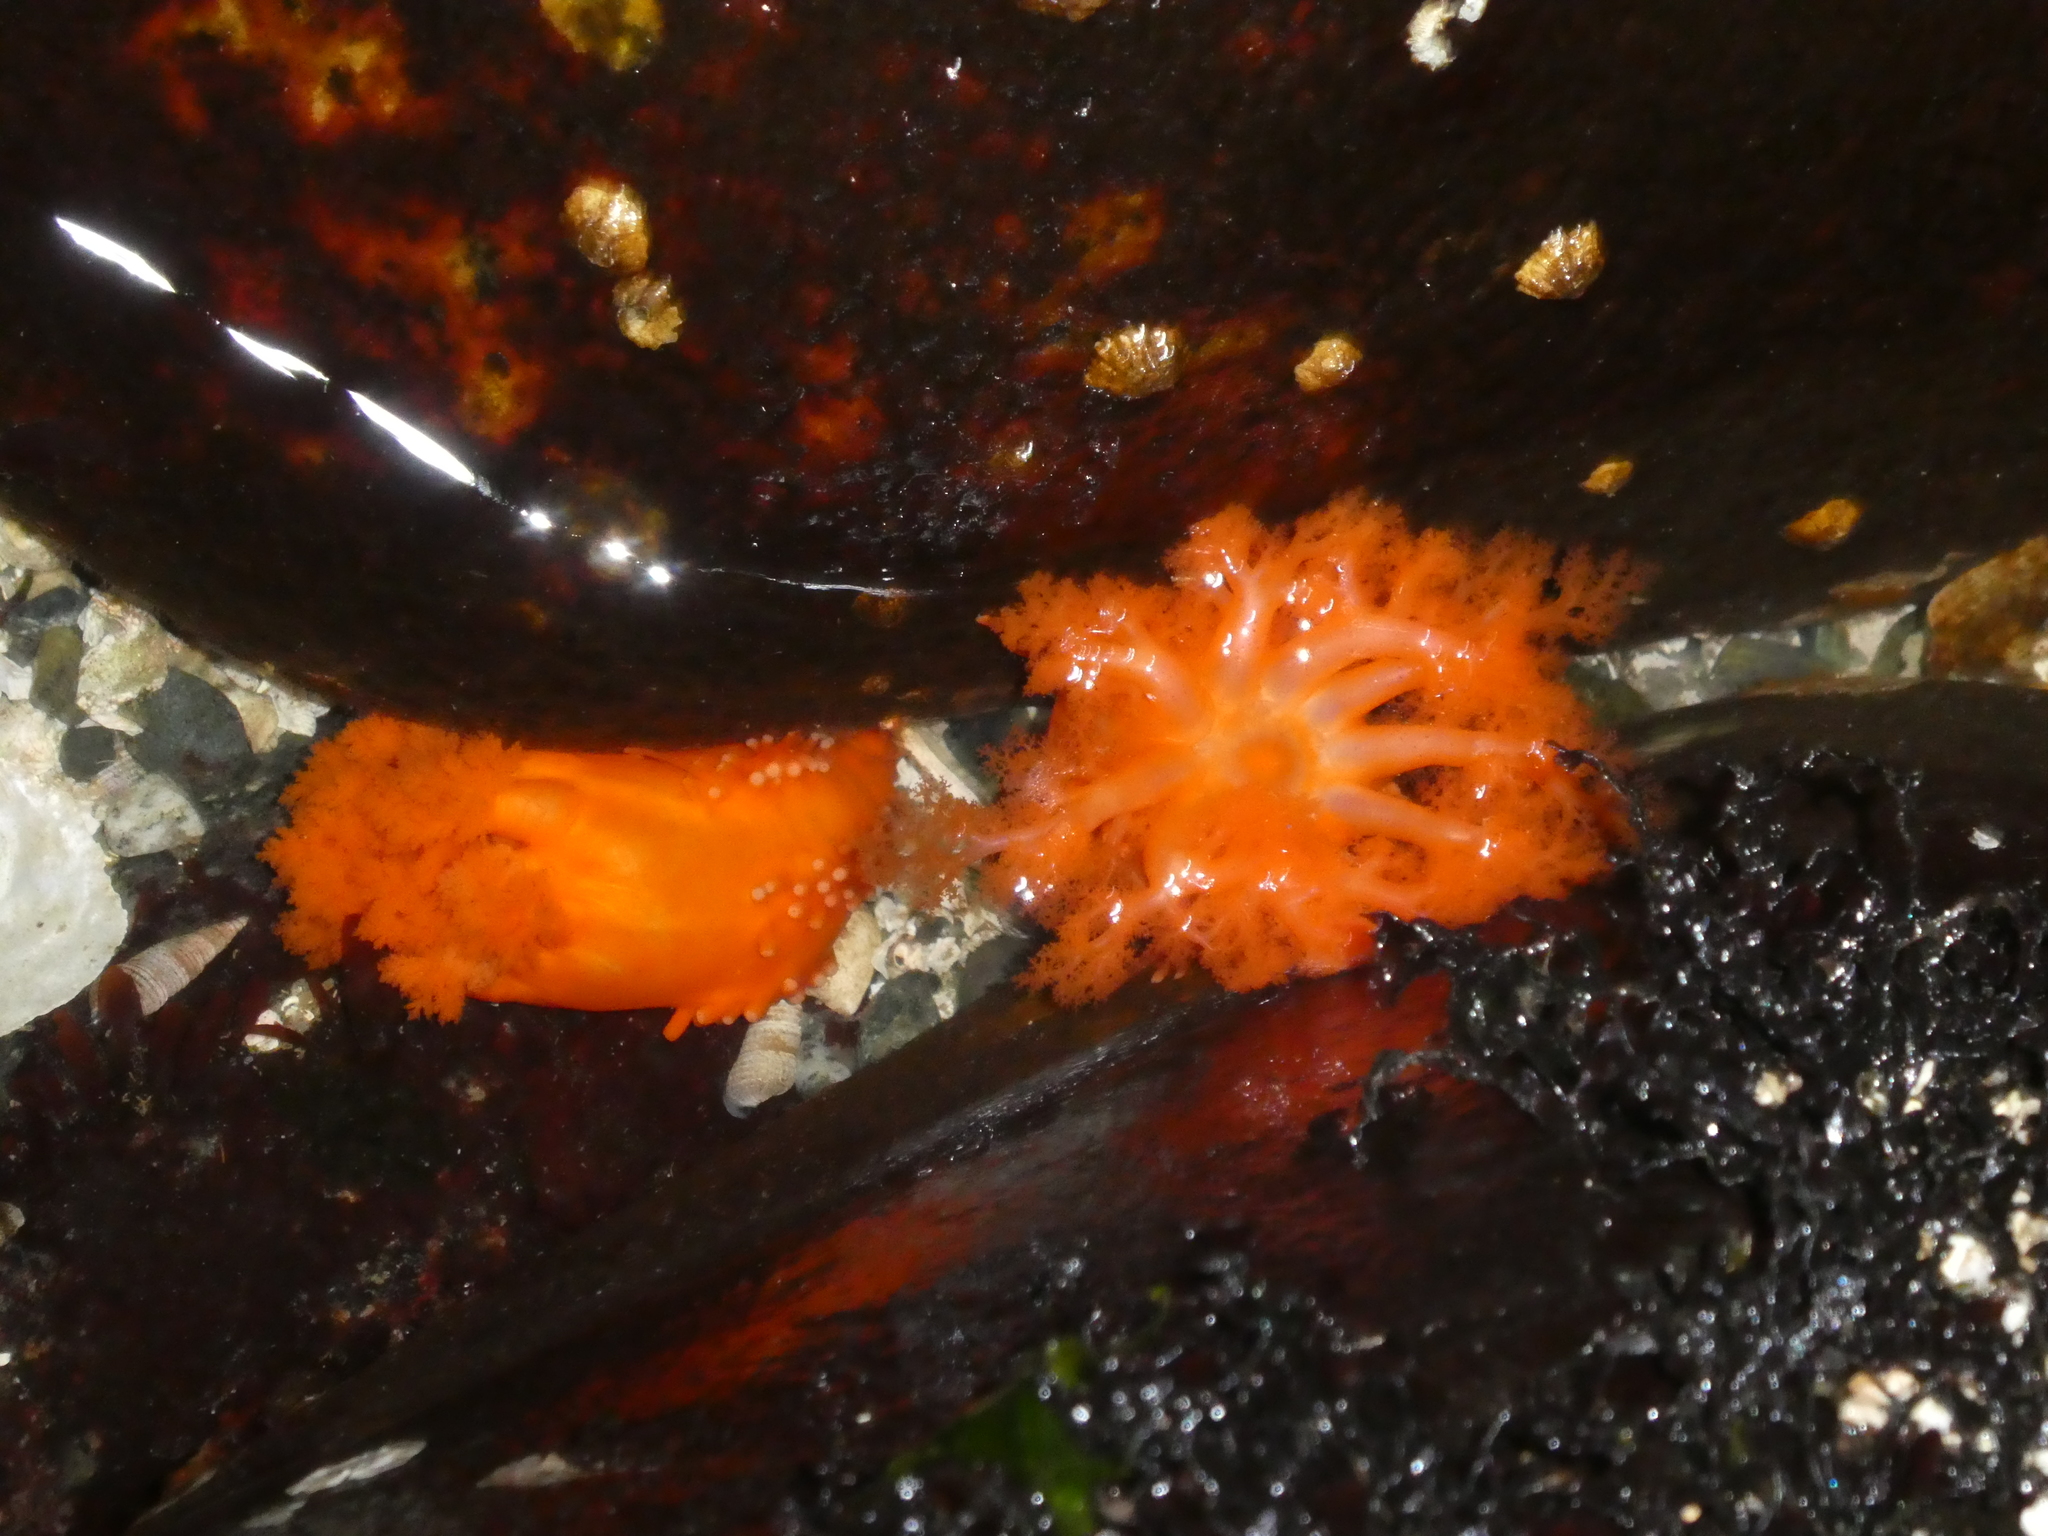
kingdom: Animalia
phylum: Echinodermata
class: Holothuroidea
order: Dendrochirotida
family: Cucumariidae
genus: Cucumaria
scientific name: Cucumaria miniata
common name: Orange sea cucumber
